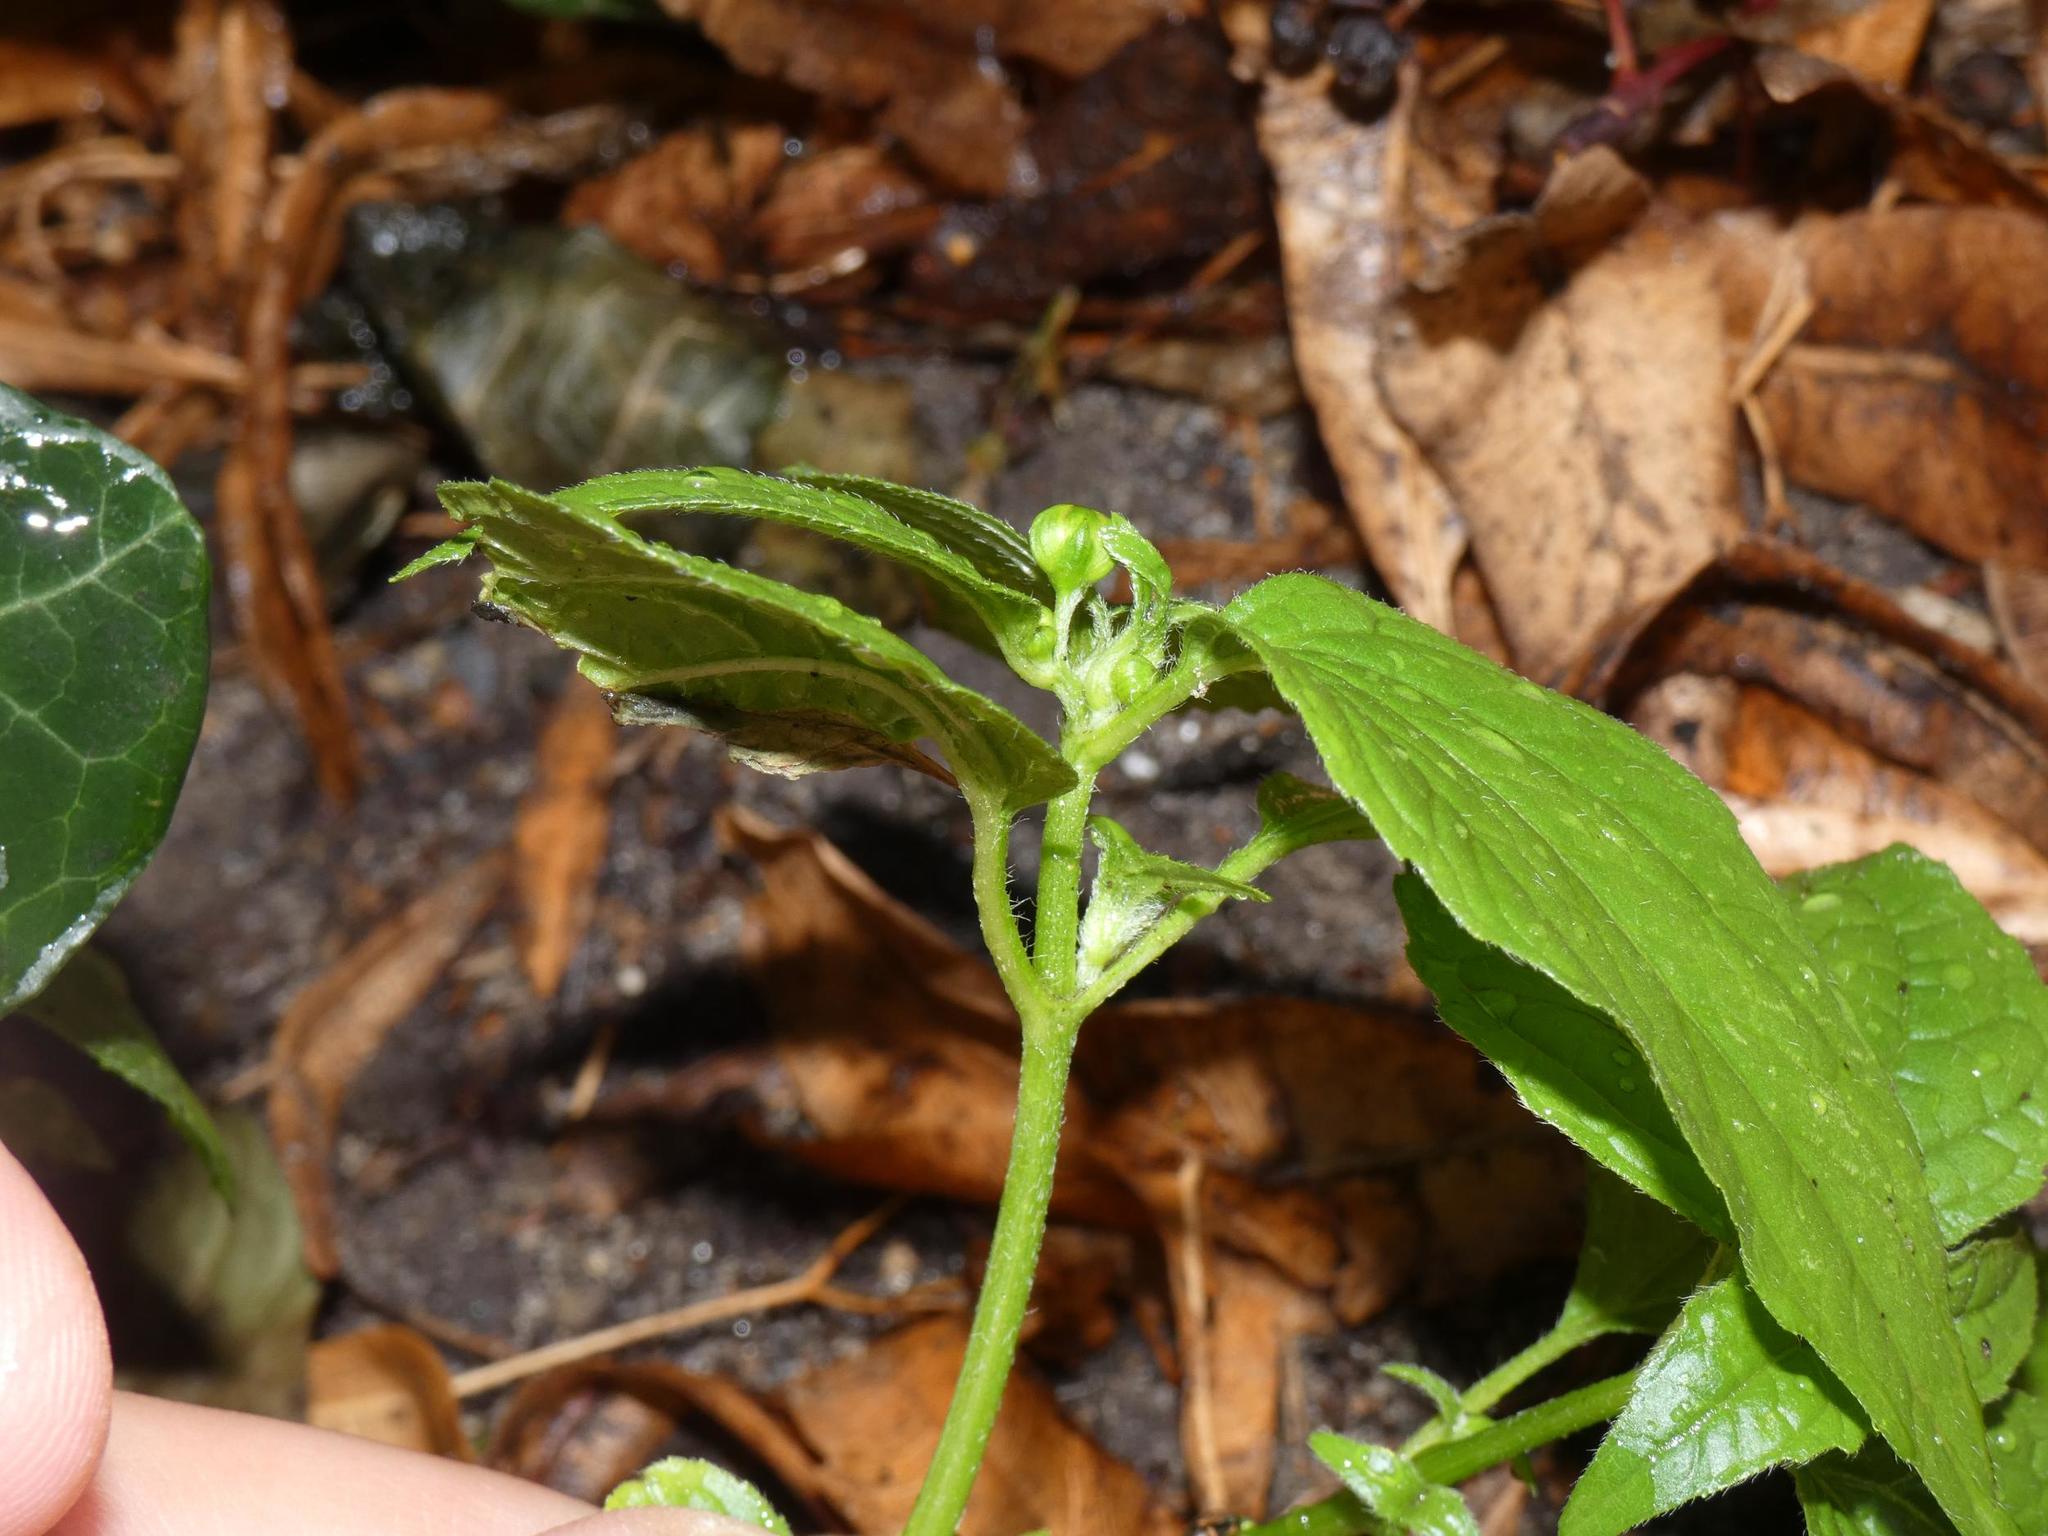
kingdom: Plantae
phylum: Tracheophyta
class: Magnoliopsida
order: Asterales
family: Asteraceae
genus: Galinsoga
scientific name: Galinsoga parviflora
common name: Gallant soldier
